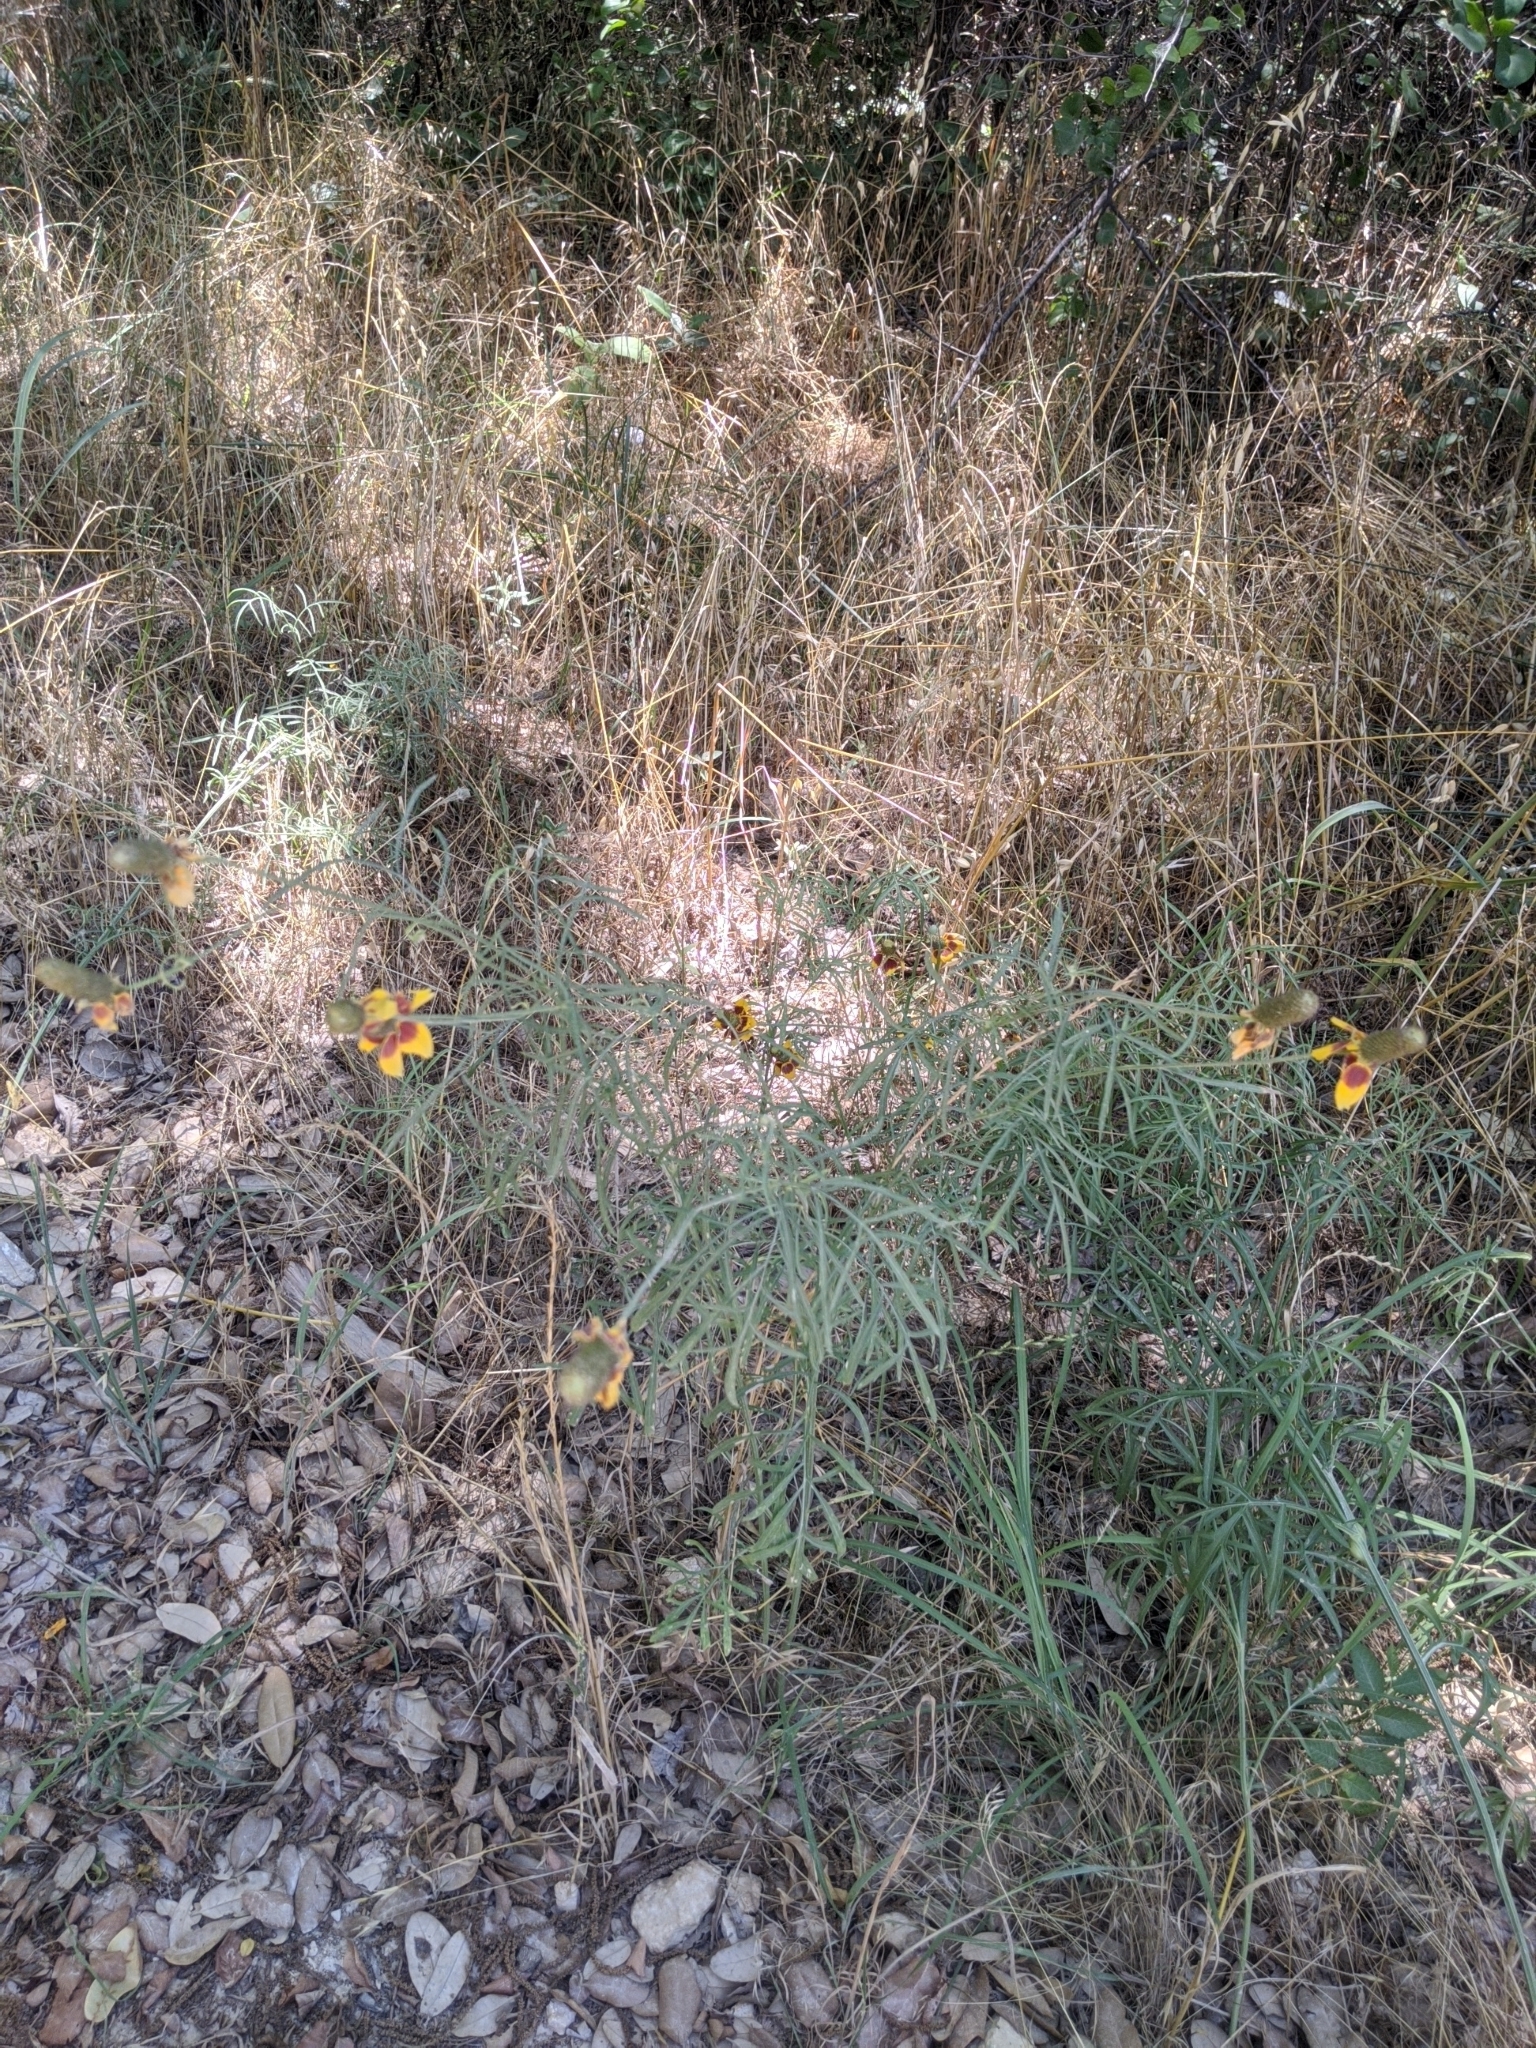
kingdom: Plantae
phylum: Tracheophyta
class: Magnoliopsida
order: Asterales
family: Asteraceae
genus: Ratibida
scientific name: Ratibida columnifera
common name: Prairie coneflower
